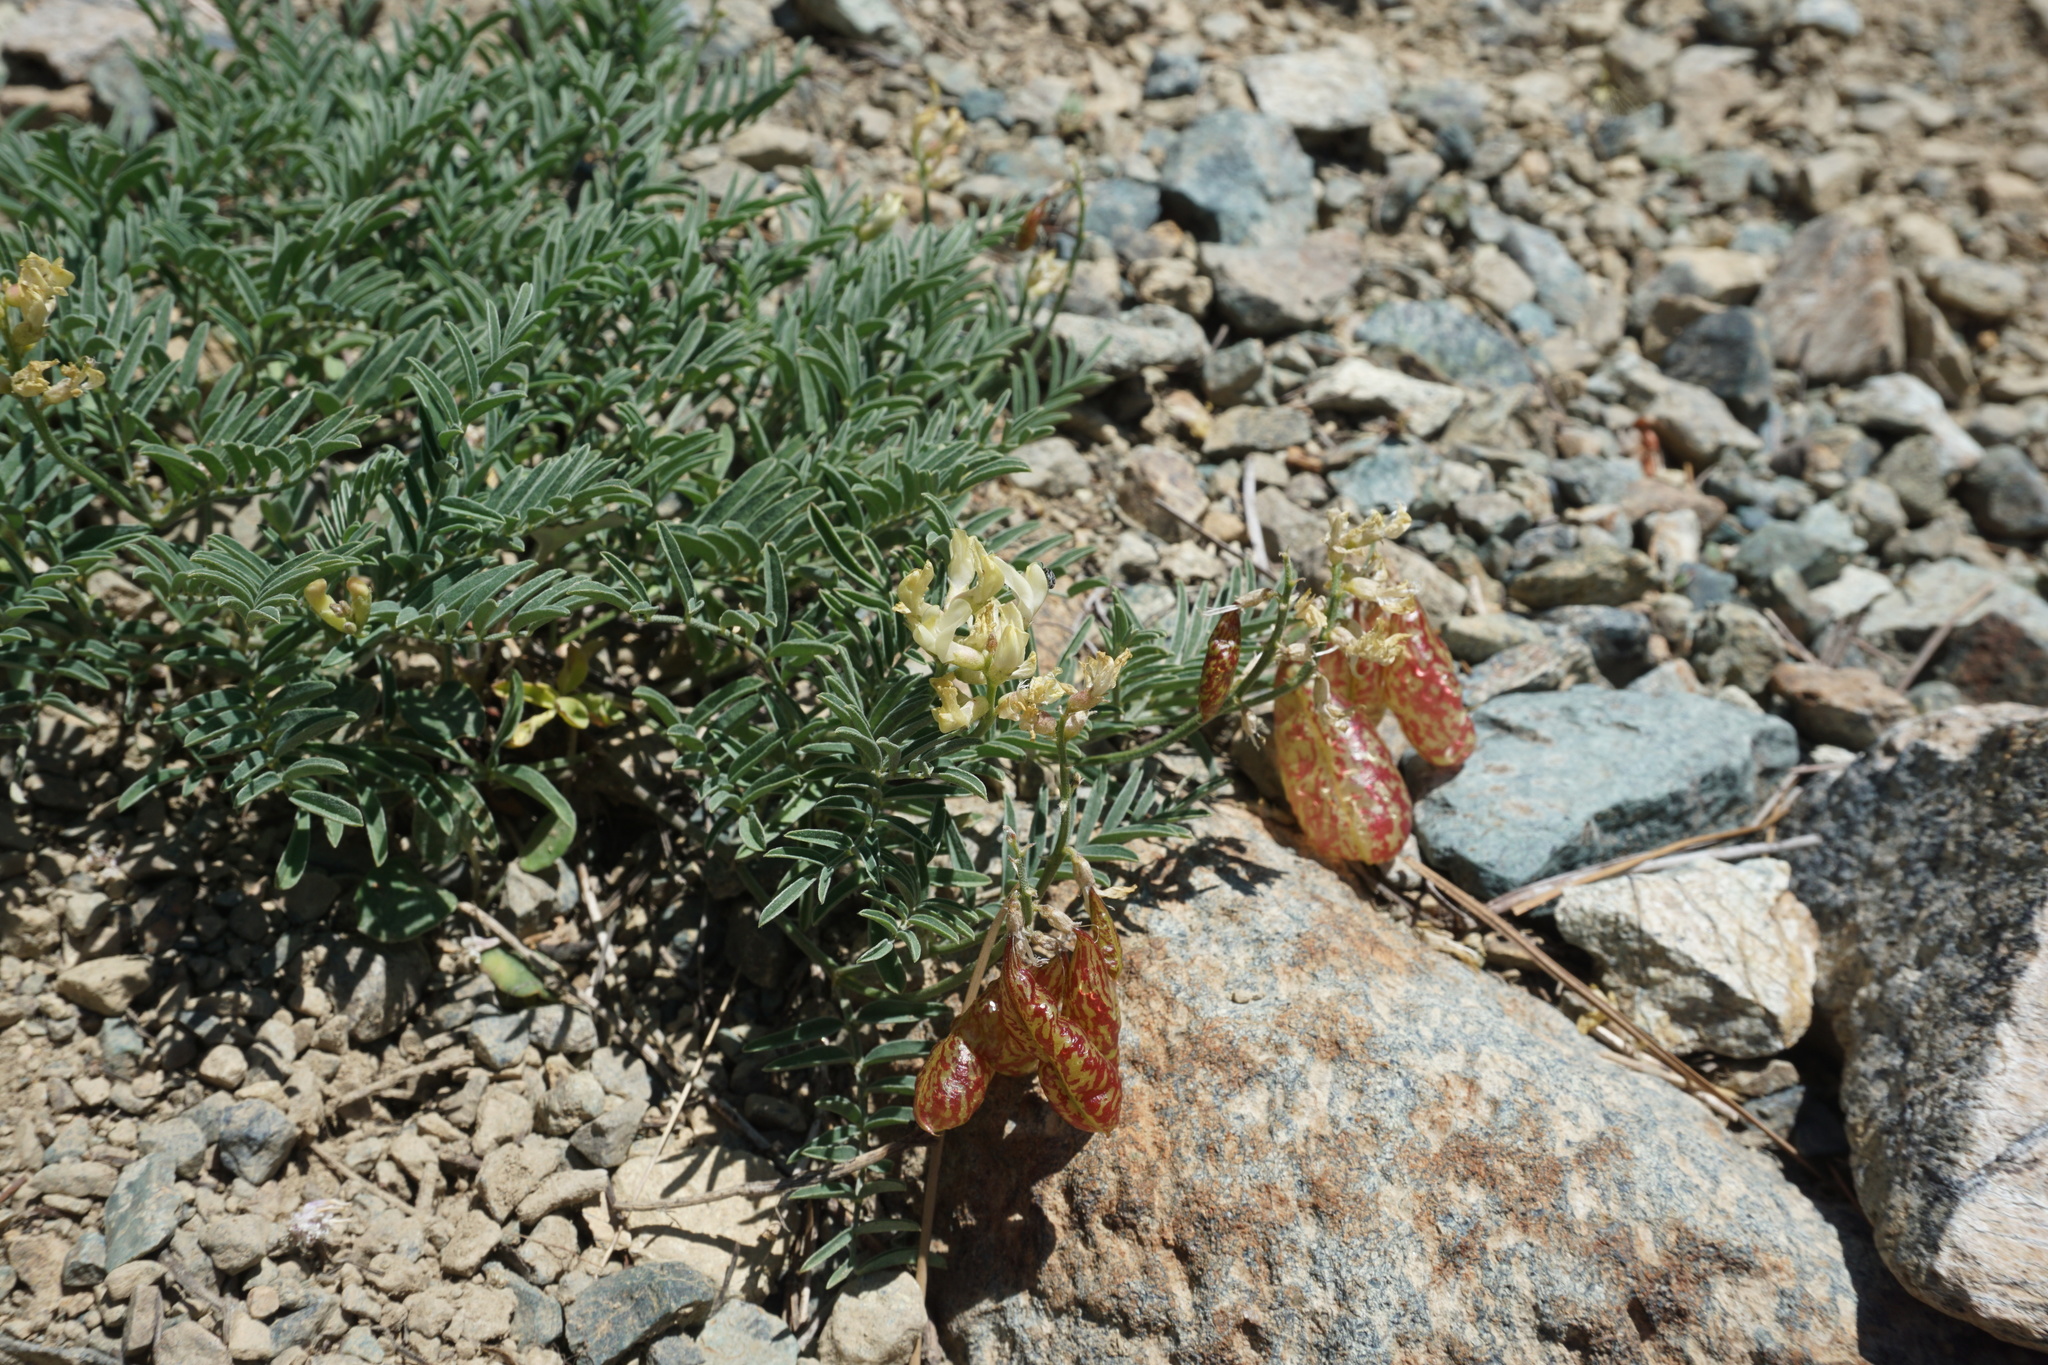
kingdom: Plantae
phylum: Tracheophyta
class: Magnoliopsida
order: Fabales
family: Fabaceae
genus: Astragalus
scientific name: Astragalus whitneyi
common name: Balloonpod milkvetch
